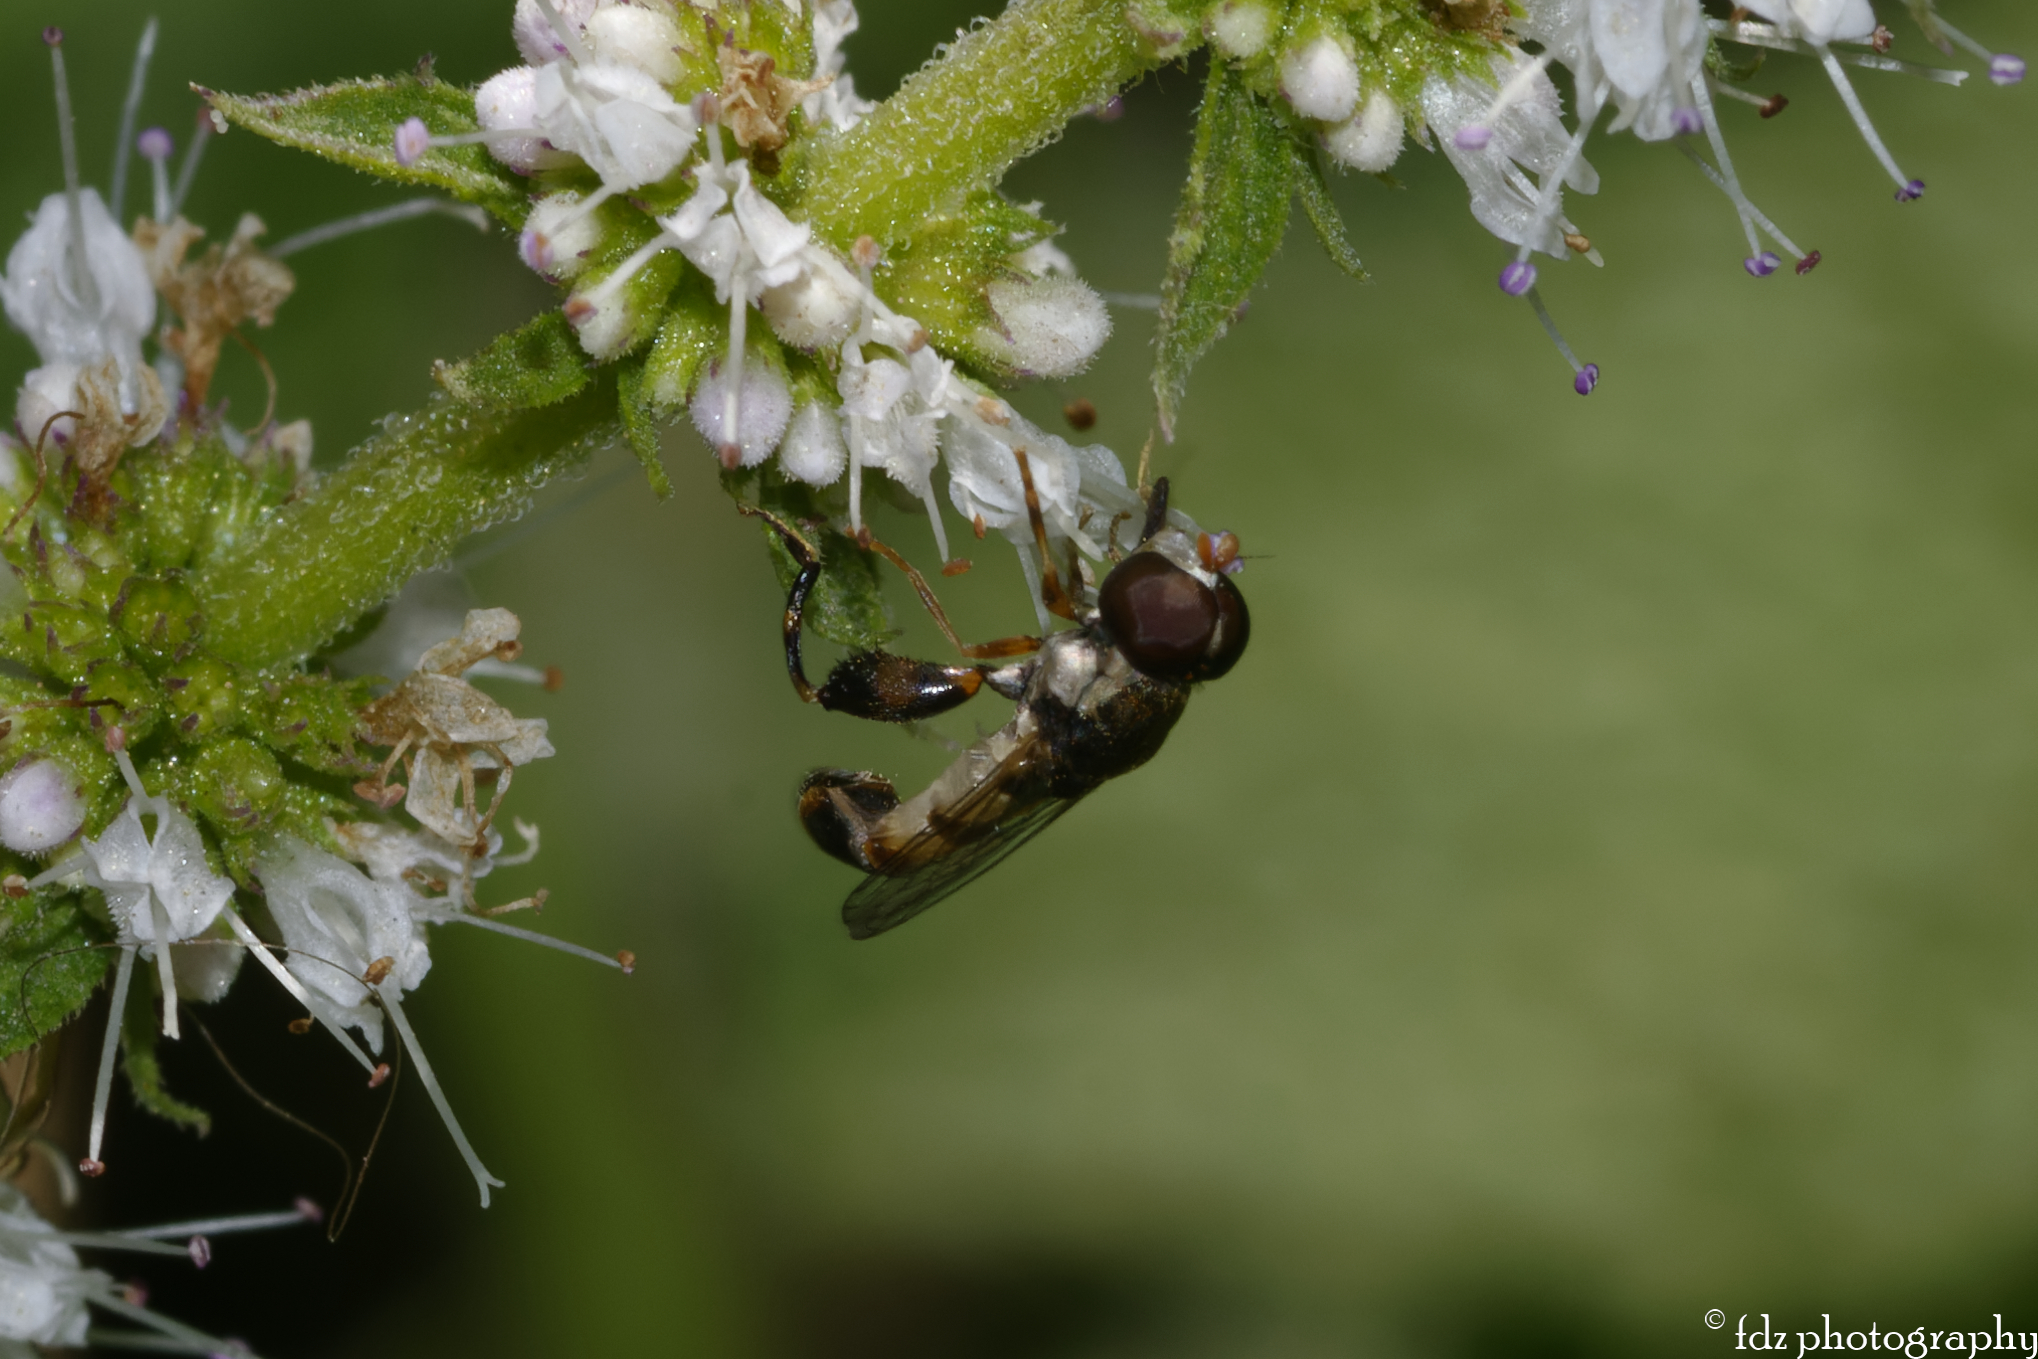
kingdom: Animalia
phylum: Arthropoda
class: Insecta
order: Diptera
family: Syrphidae
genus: Syritta
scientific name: Syritta pipiens
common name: Hover fly
